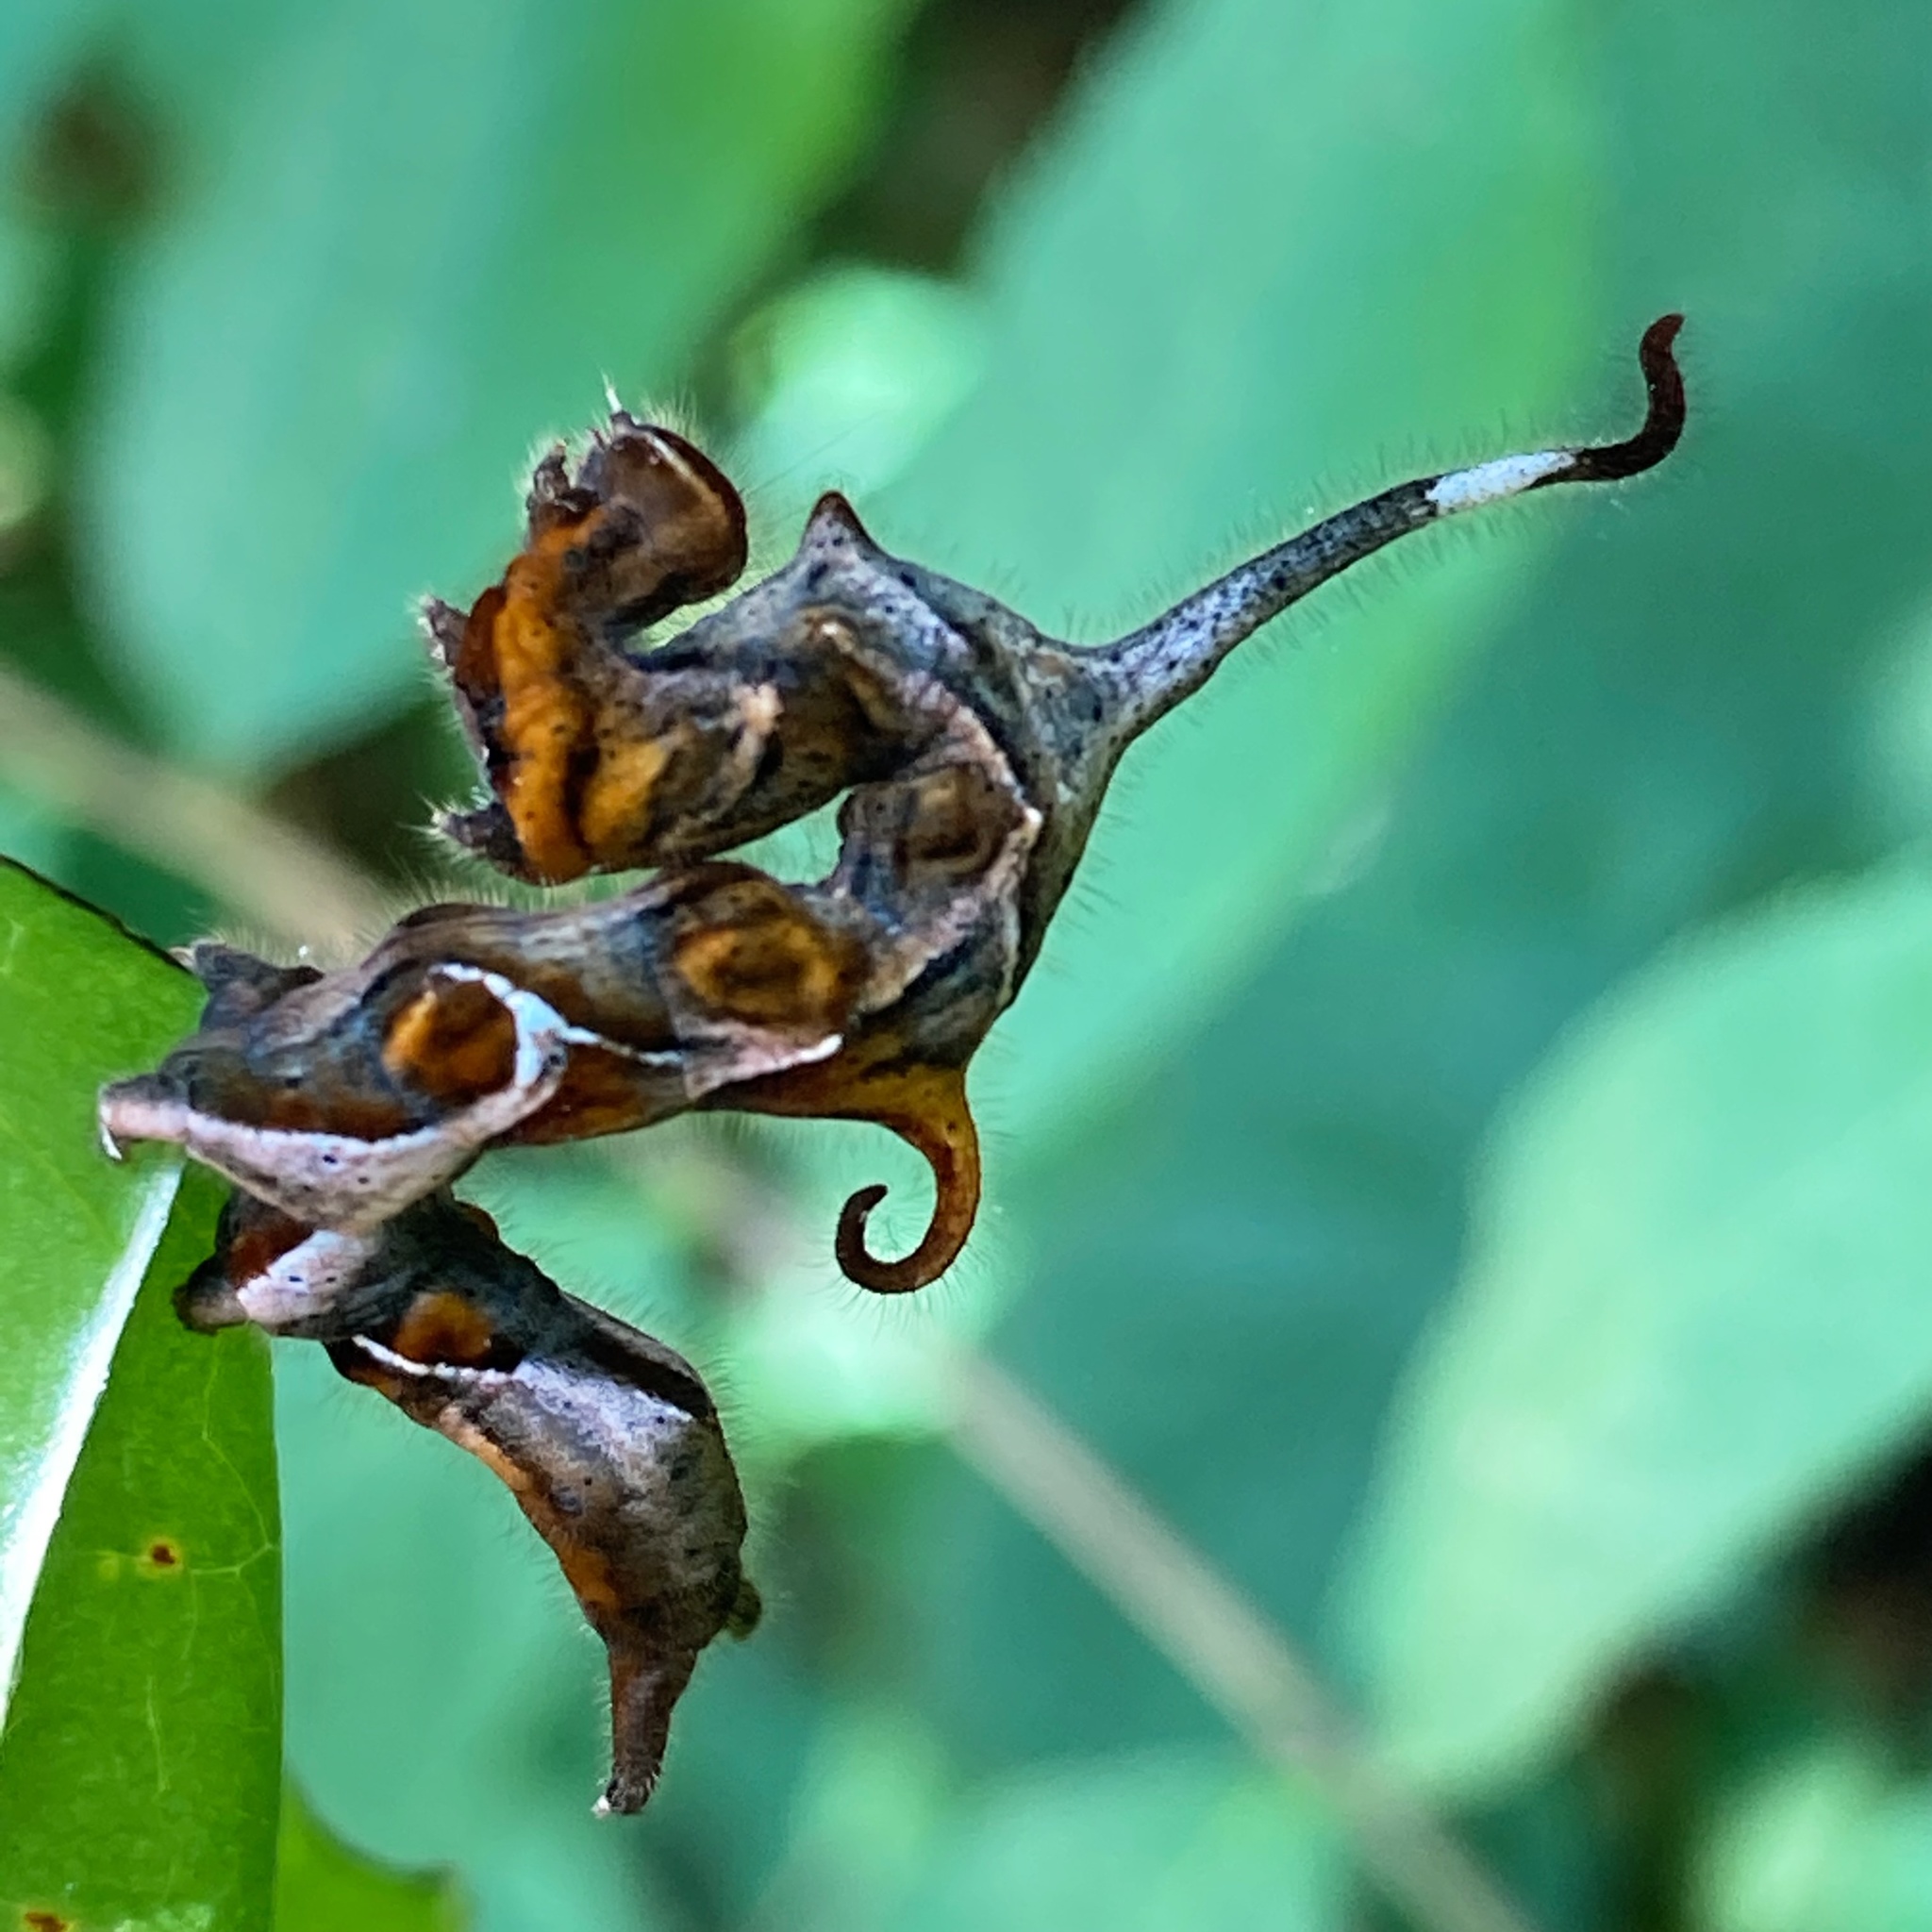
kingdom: Animalia
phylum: Arthropoda
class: Insecta
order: Lepidoptera
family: Erebidae
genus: Phyprosopus
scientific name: Phyprosopus callitrichoides
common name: Curved-lined owlet
